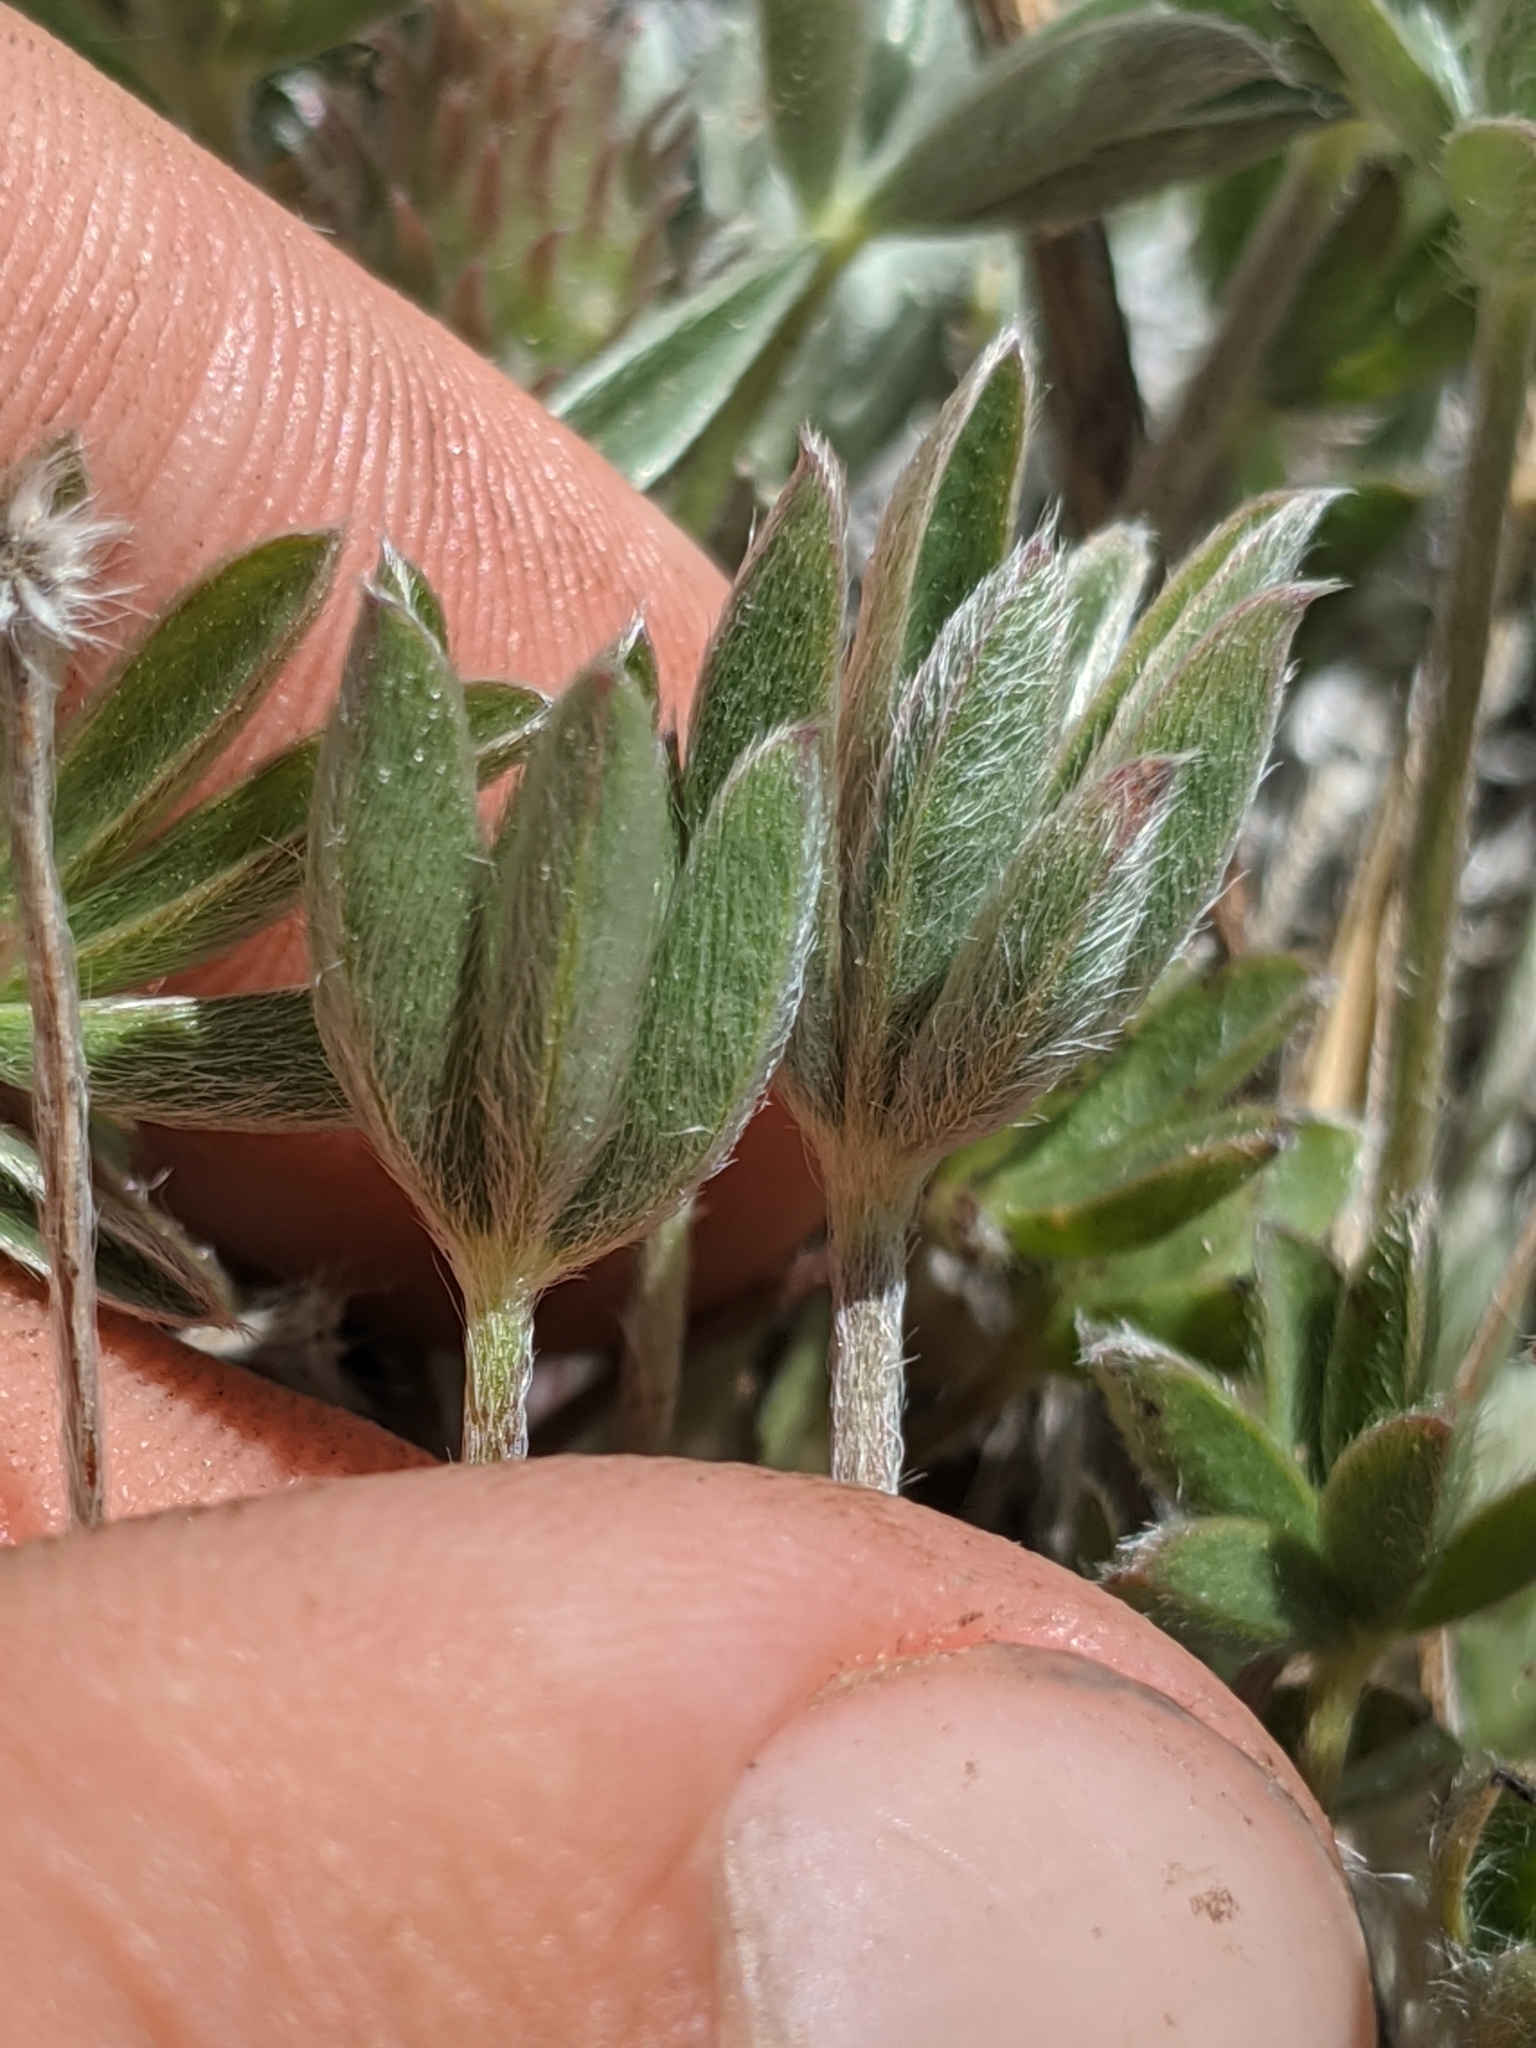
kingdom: Plantae
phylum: Tracheophyta
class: Magnoliopsida
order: Fabales
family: Fabaceae
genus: Lupinus
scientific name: Lupinus confertus
